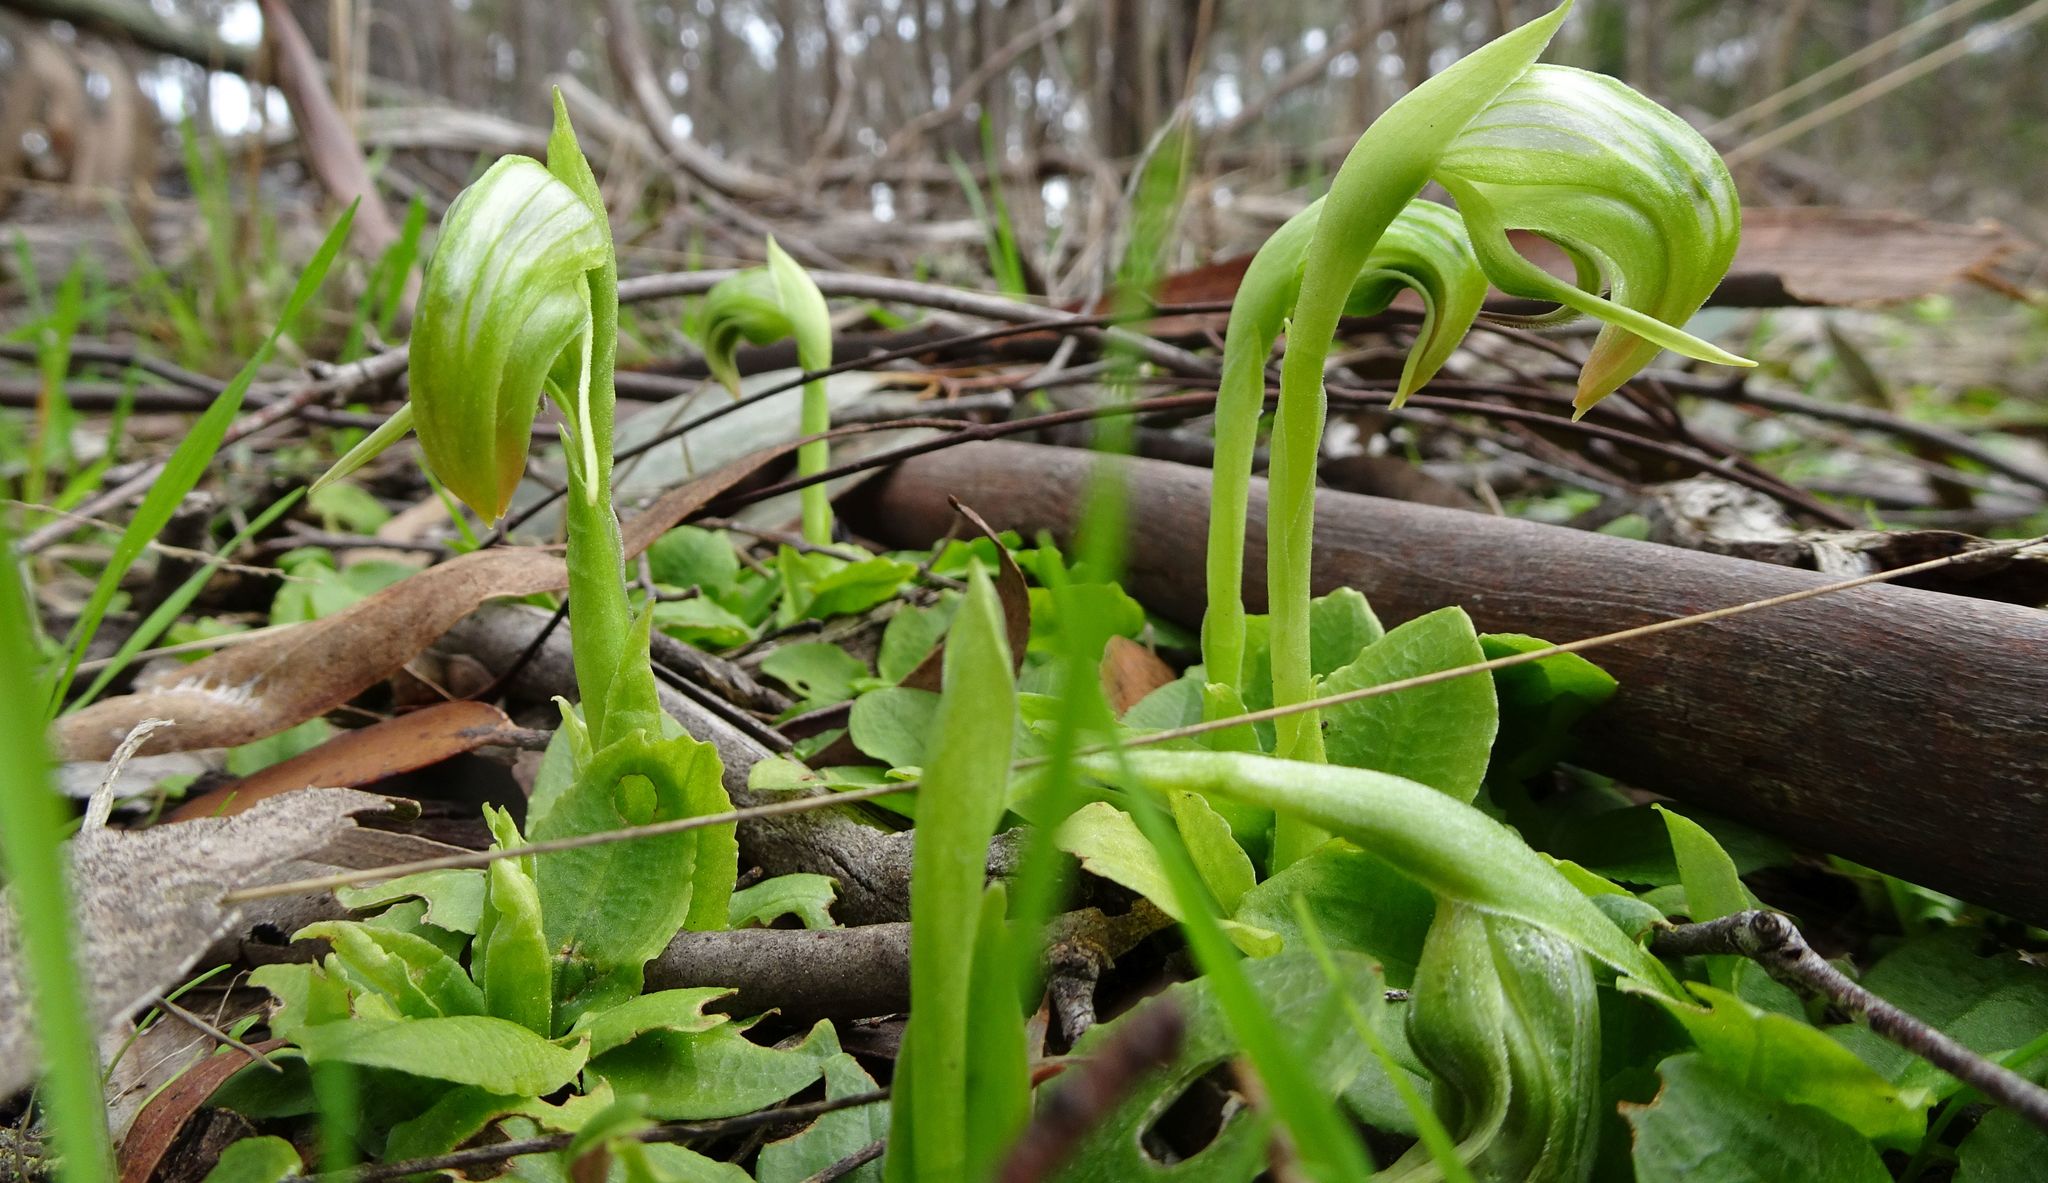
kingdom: Plantae
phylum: Tracheophyta
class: Liliopsida
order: Asparagales
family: Orchidaceae
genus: Pterostylis
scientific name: Pterostylis nutans
